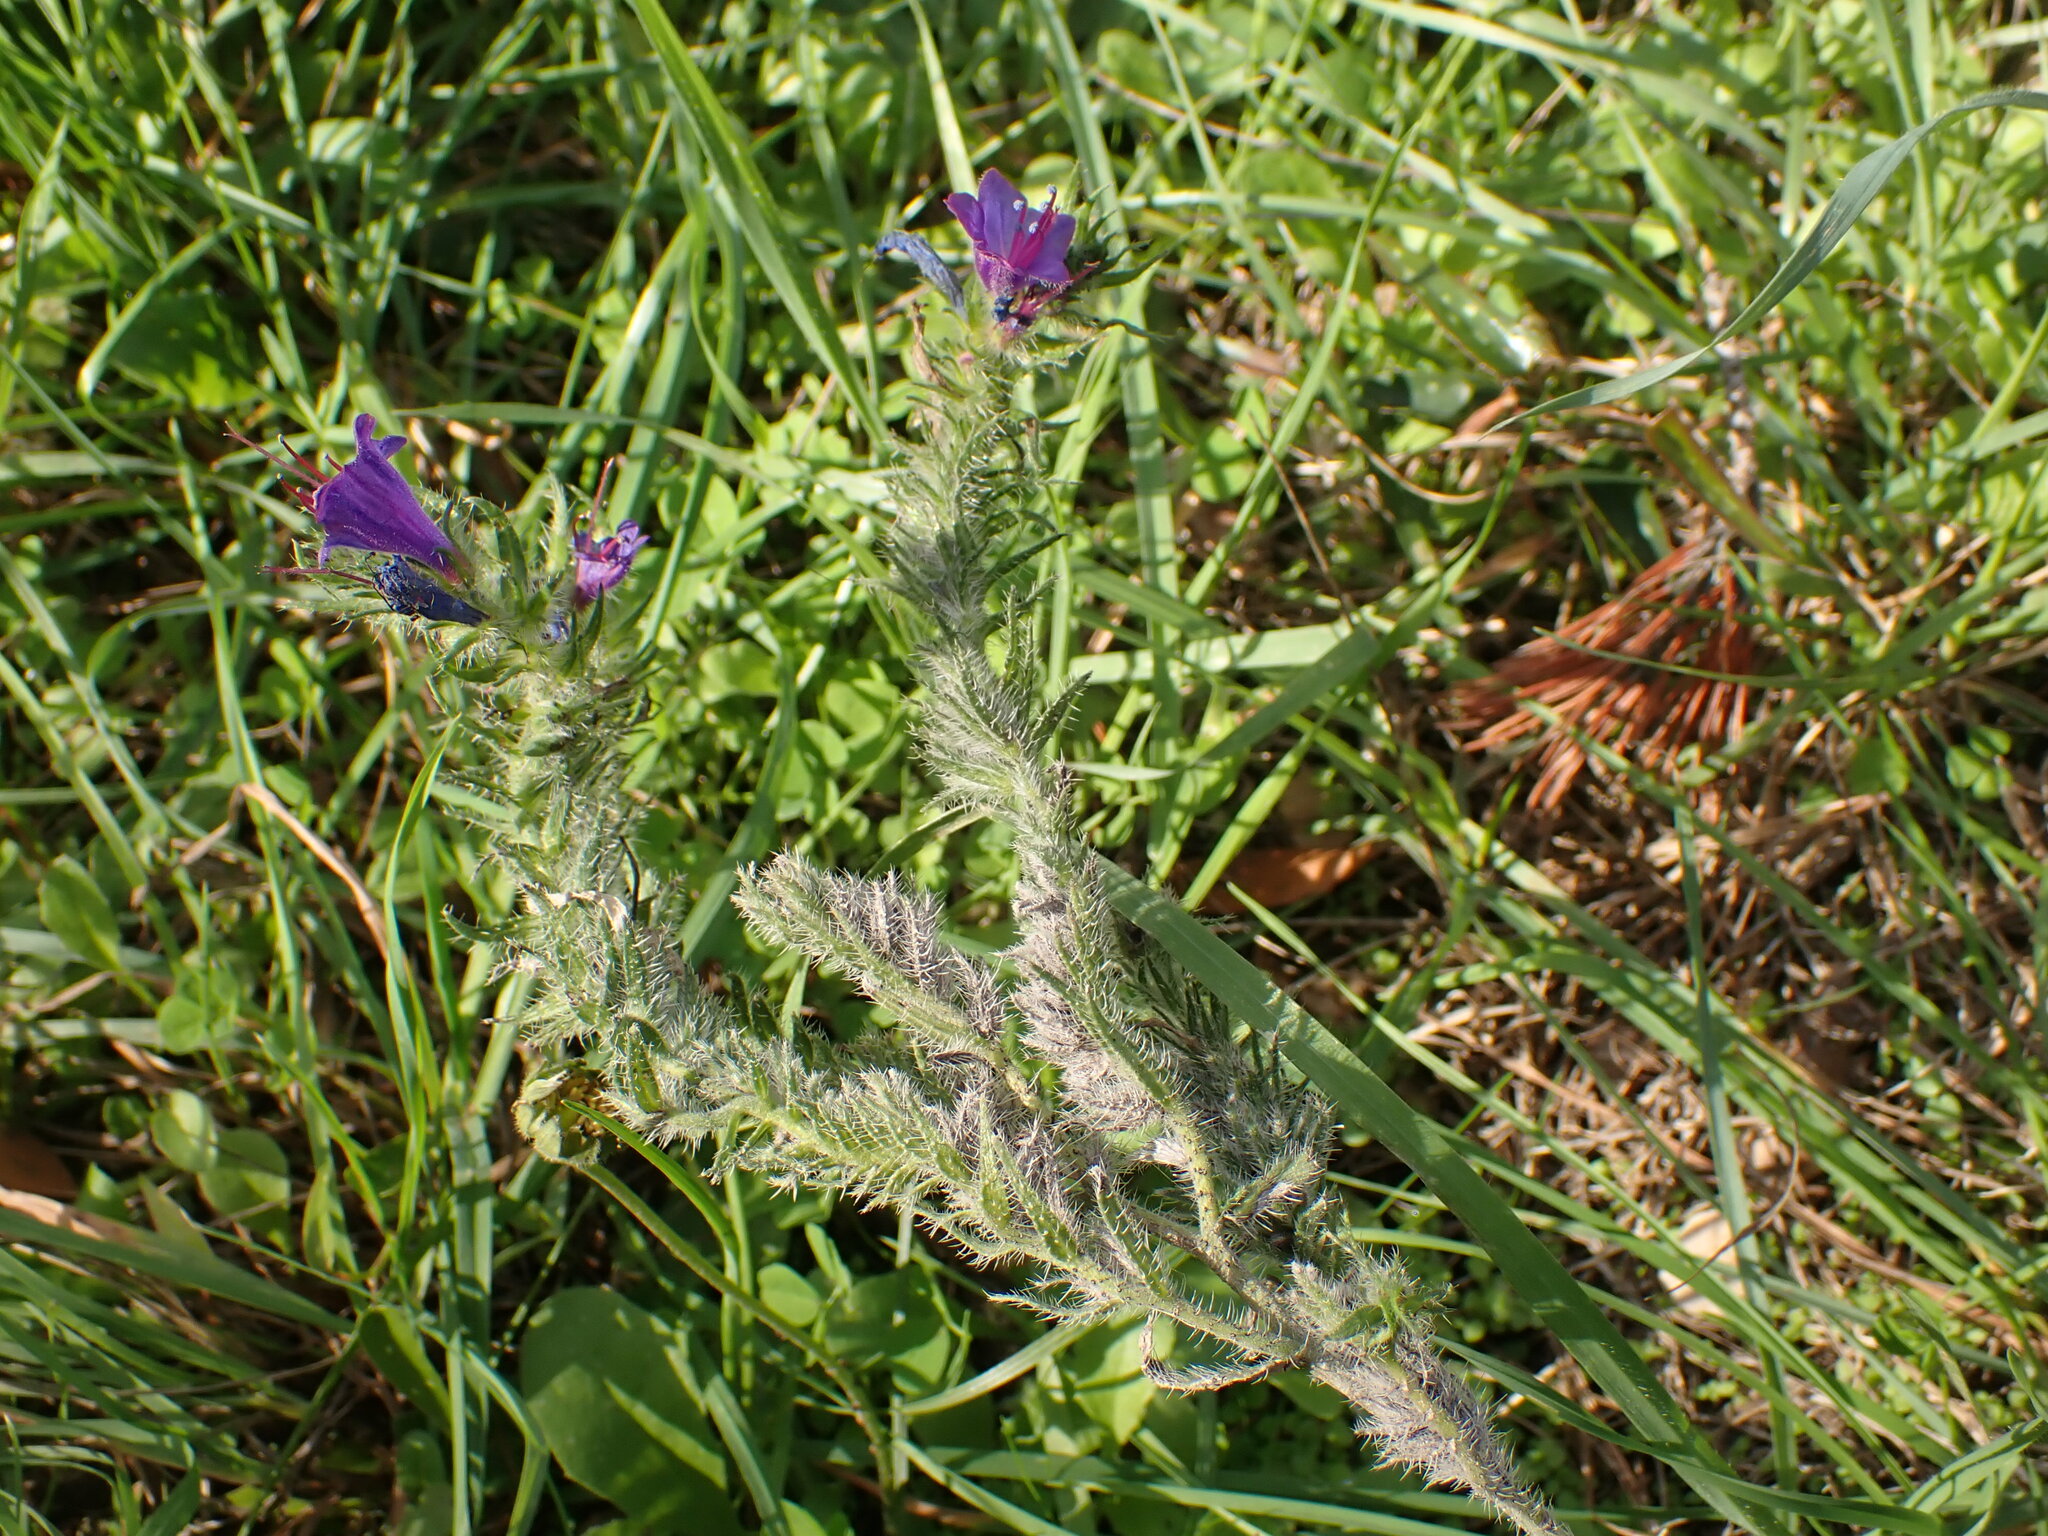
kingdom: Plantae
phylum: Tracheophyta
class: Magnoliopsida
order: Boraginales
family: Boraginaceae
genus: Echium
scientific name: Echium vulgare
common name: Common viper's bugloss
